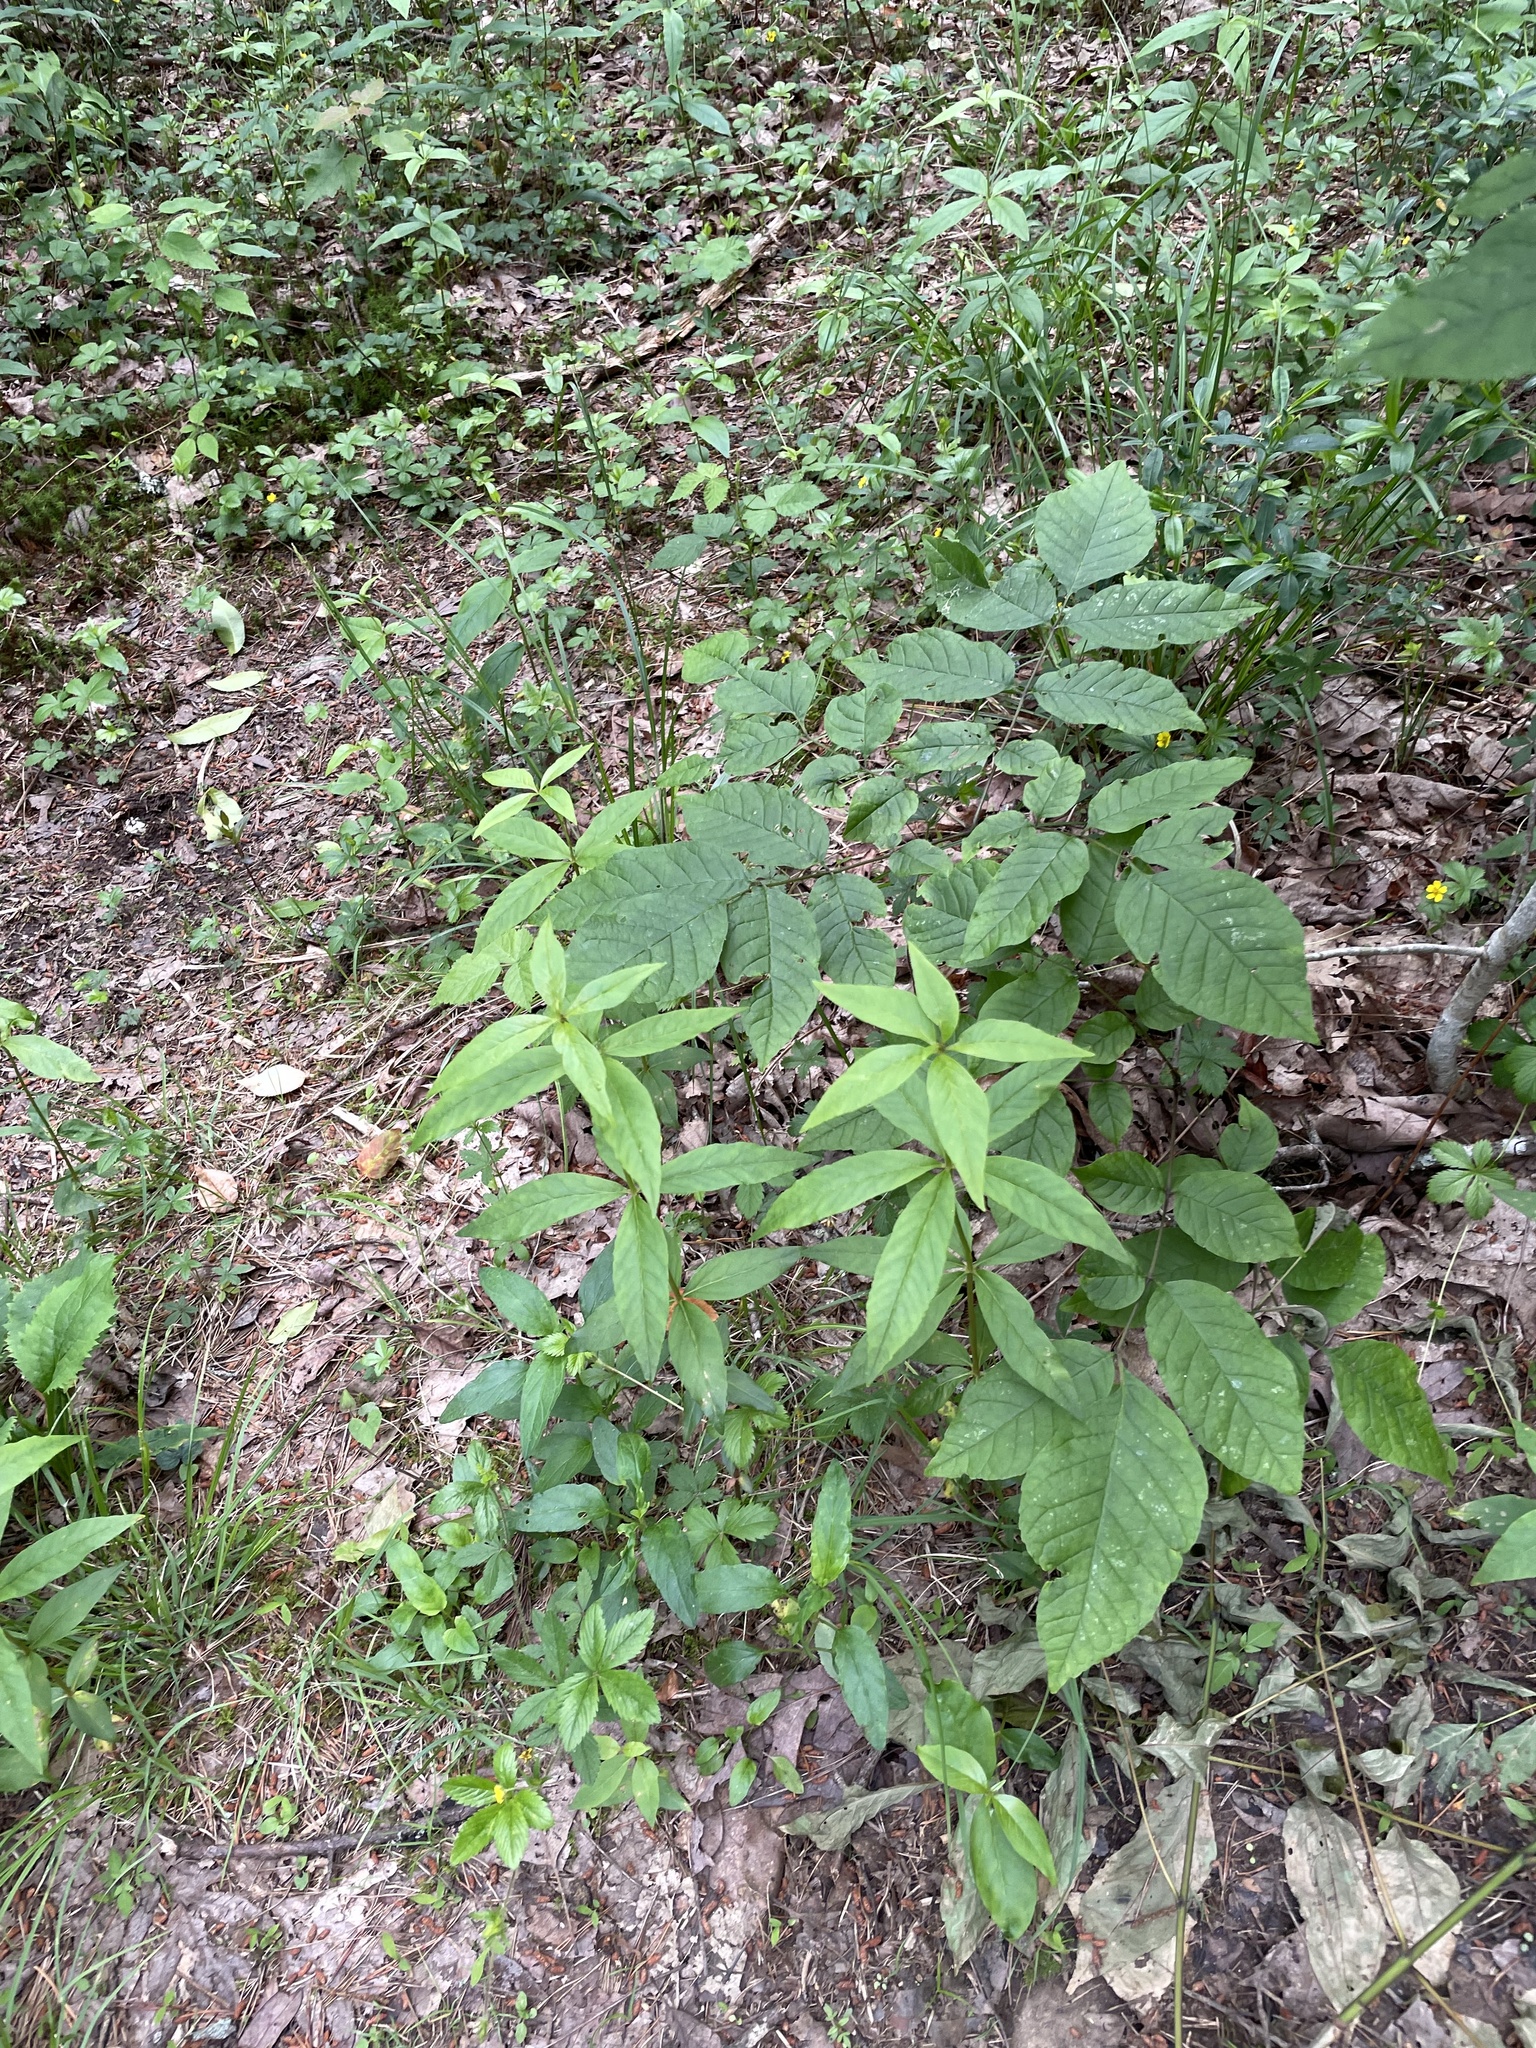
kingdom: Plantae
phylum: Tracheophyta
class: Magnoliopsida
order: Ericales
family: Primulaceae
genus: Lysimachia
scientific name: Lysimachia quadrifolia
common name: Whorled loosestrife
